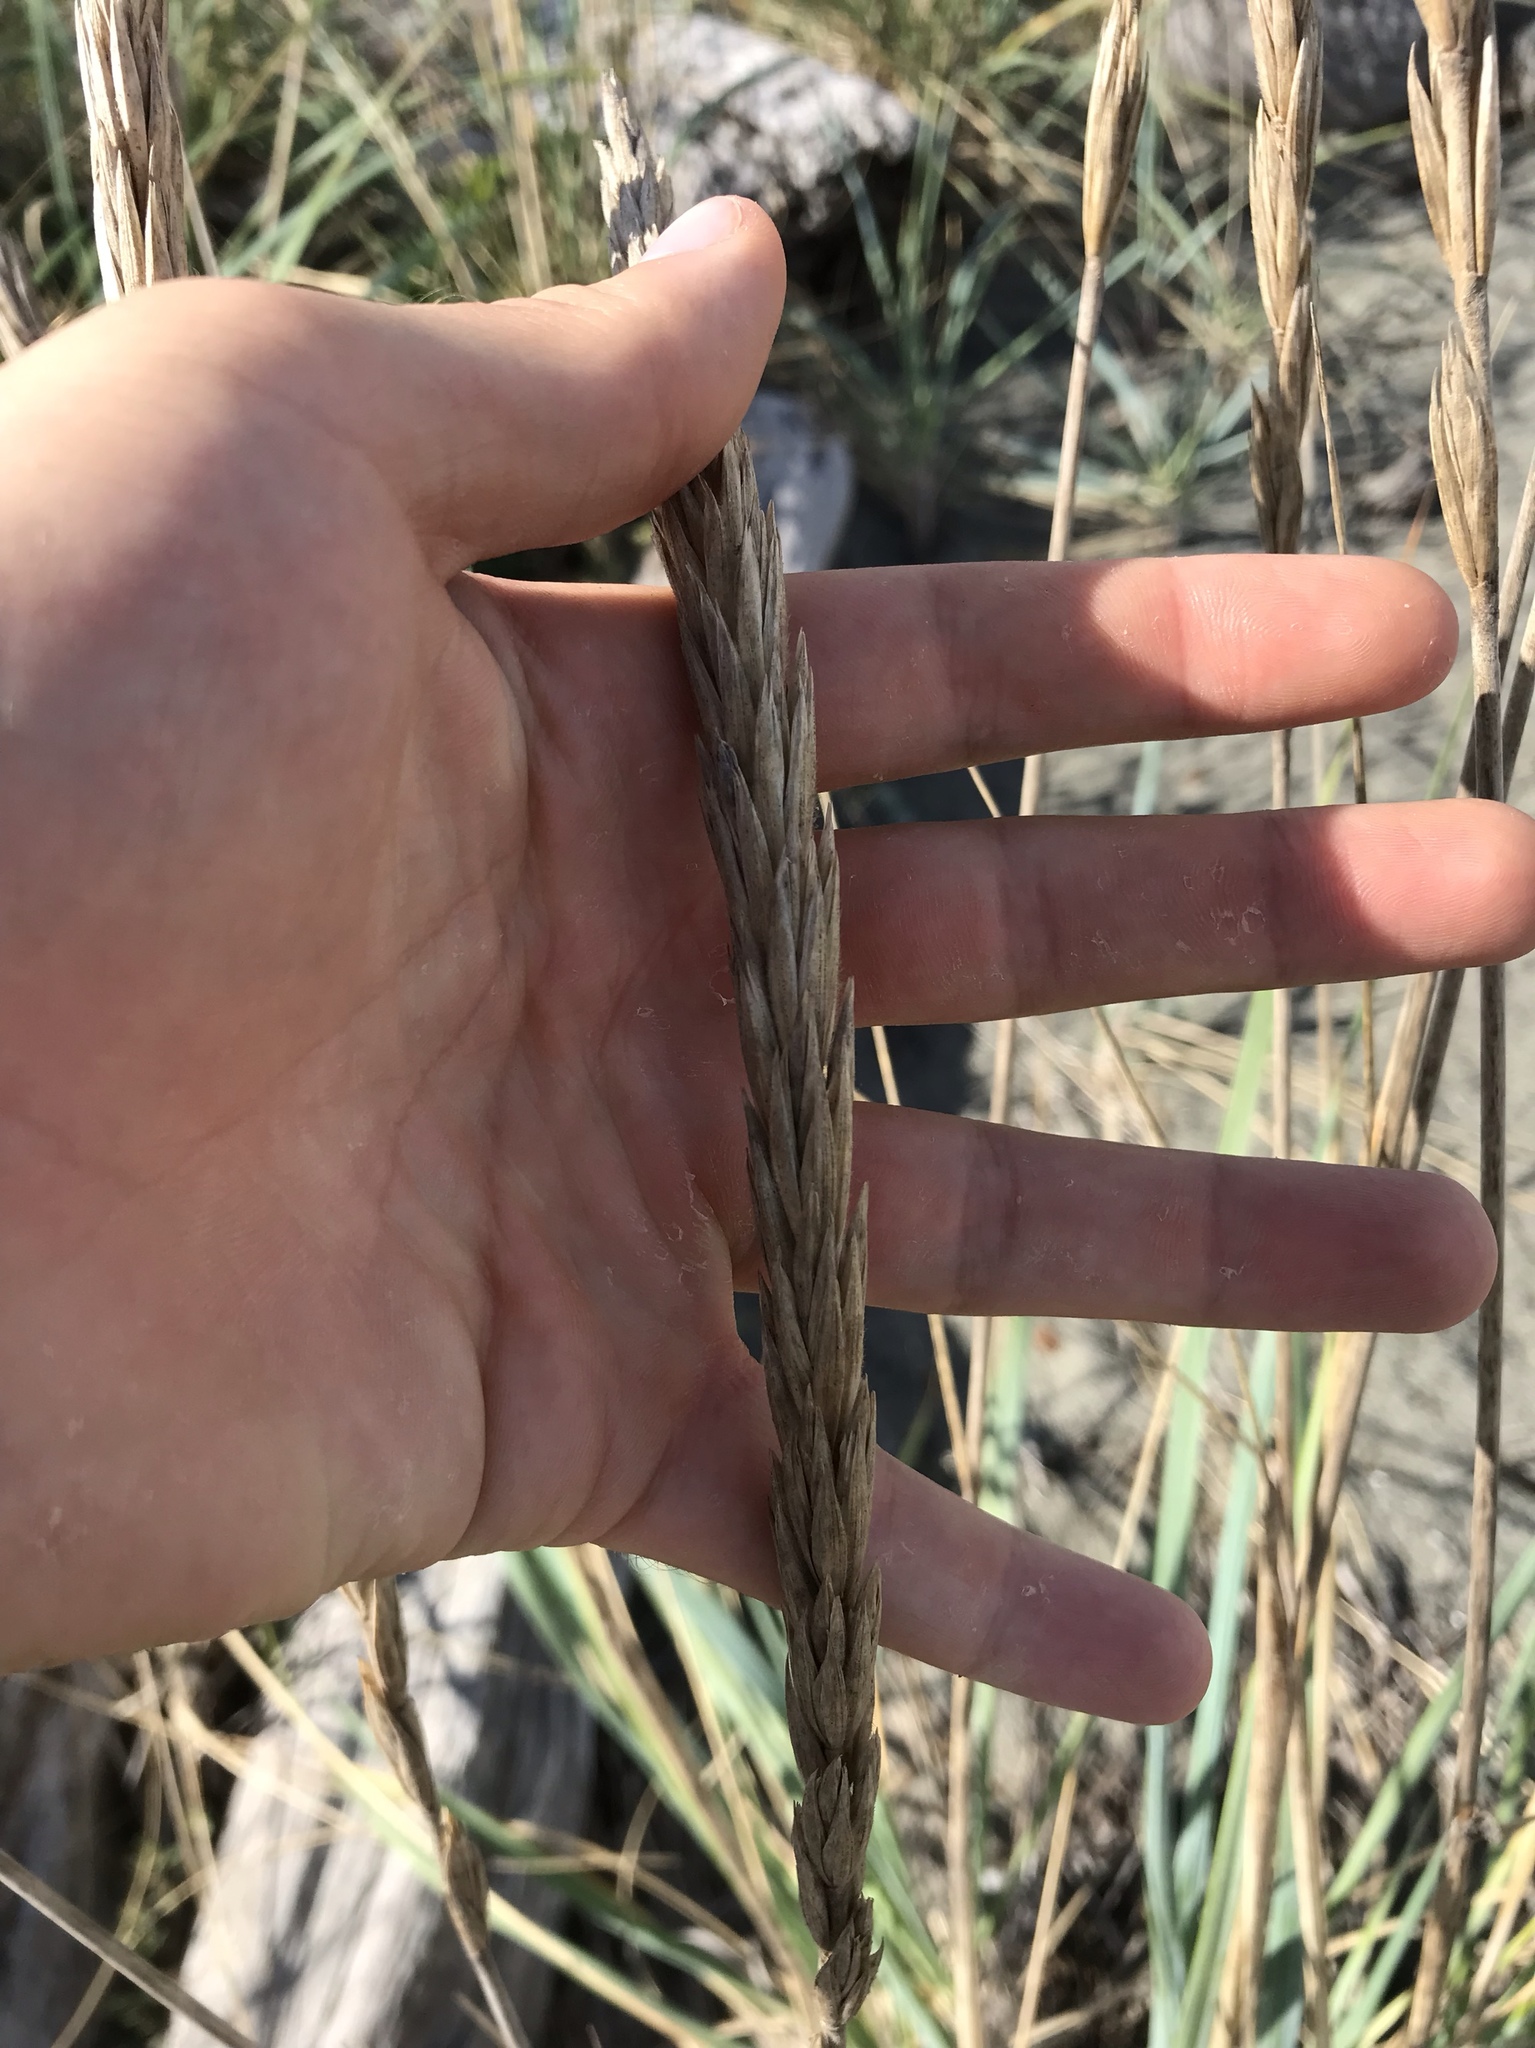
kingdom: Plantae
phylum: Tracheophyta
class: Liliopsida
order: Poales
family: Poaceae
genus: Leymus
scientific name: Leymus mollis
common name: American dune grass
